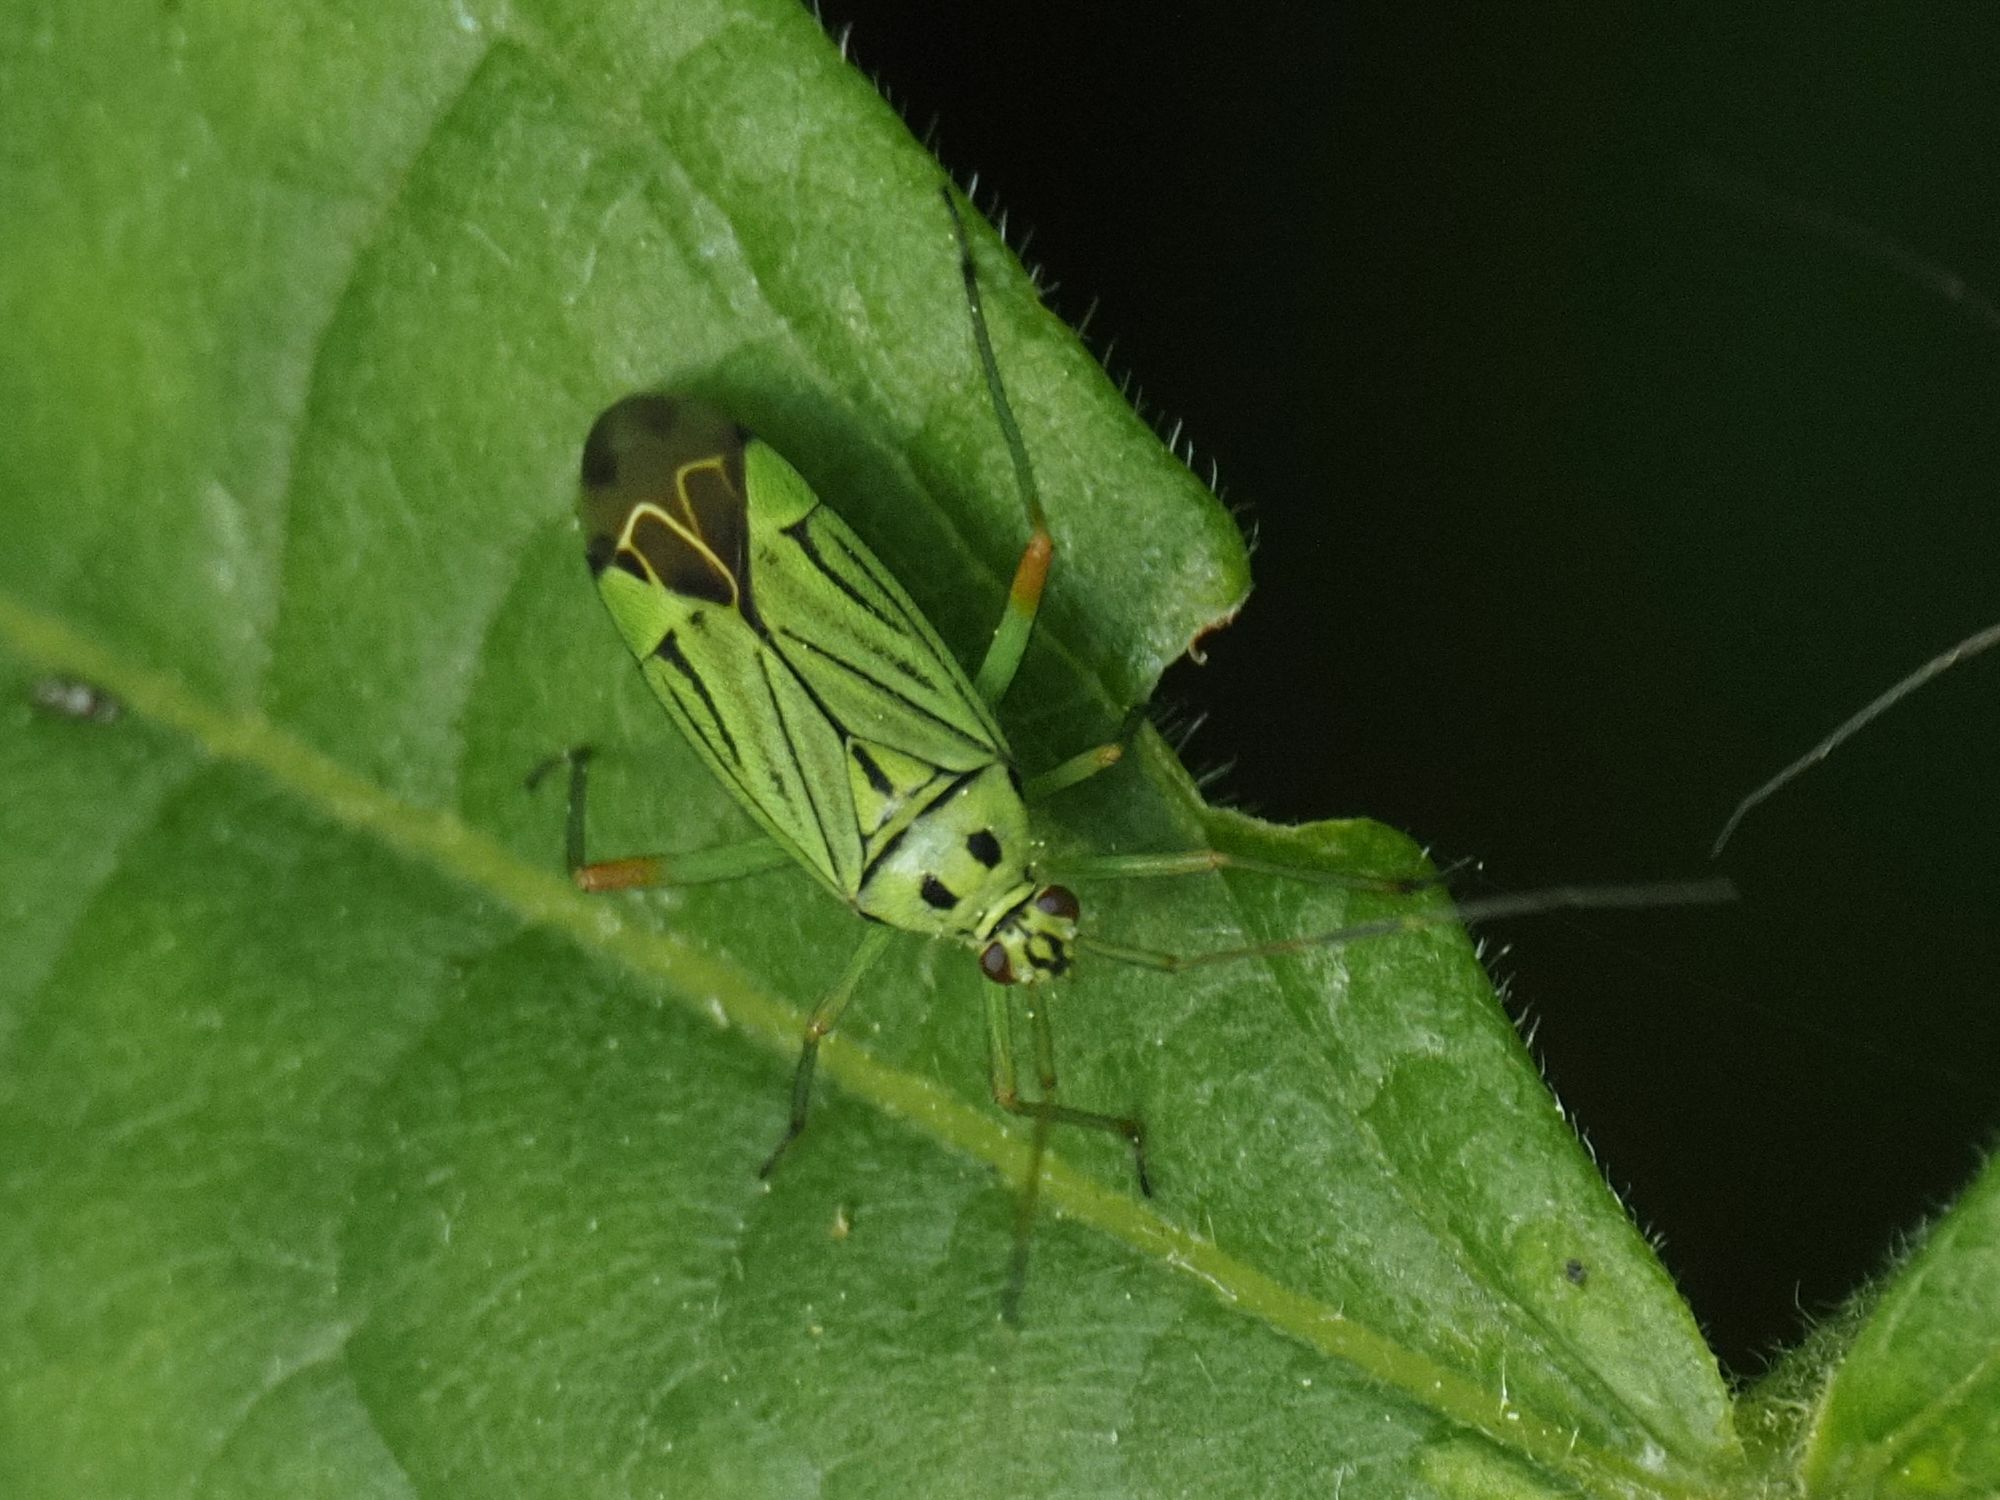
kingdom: Animalia
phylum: Arthropoda
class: Insecta
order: Hemiptera
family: Miridae
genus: Mermitelocerus
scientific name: Mermitelocerus schmidtii
